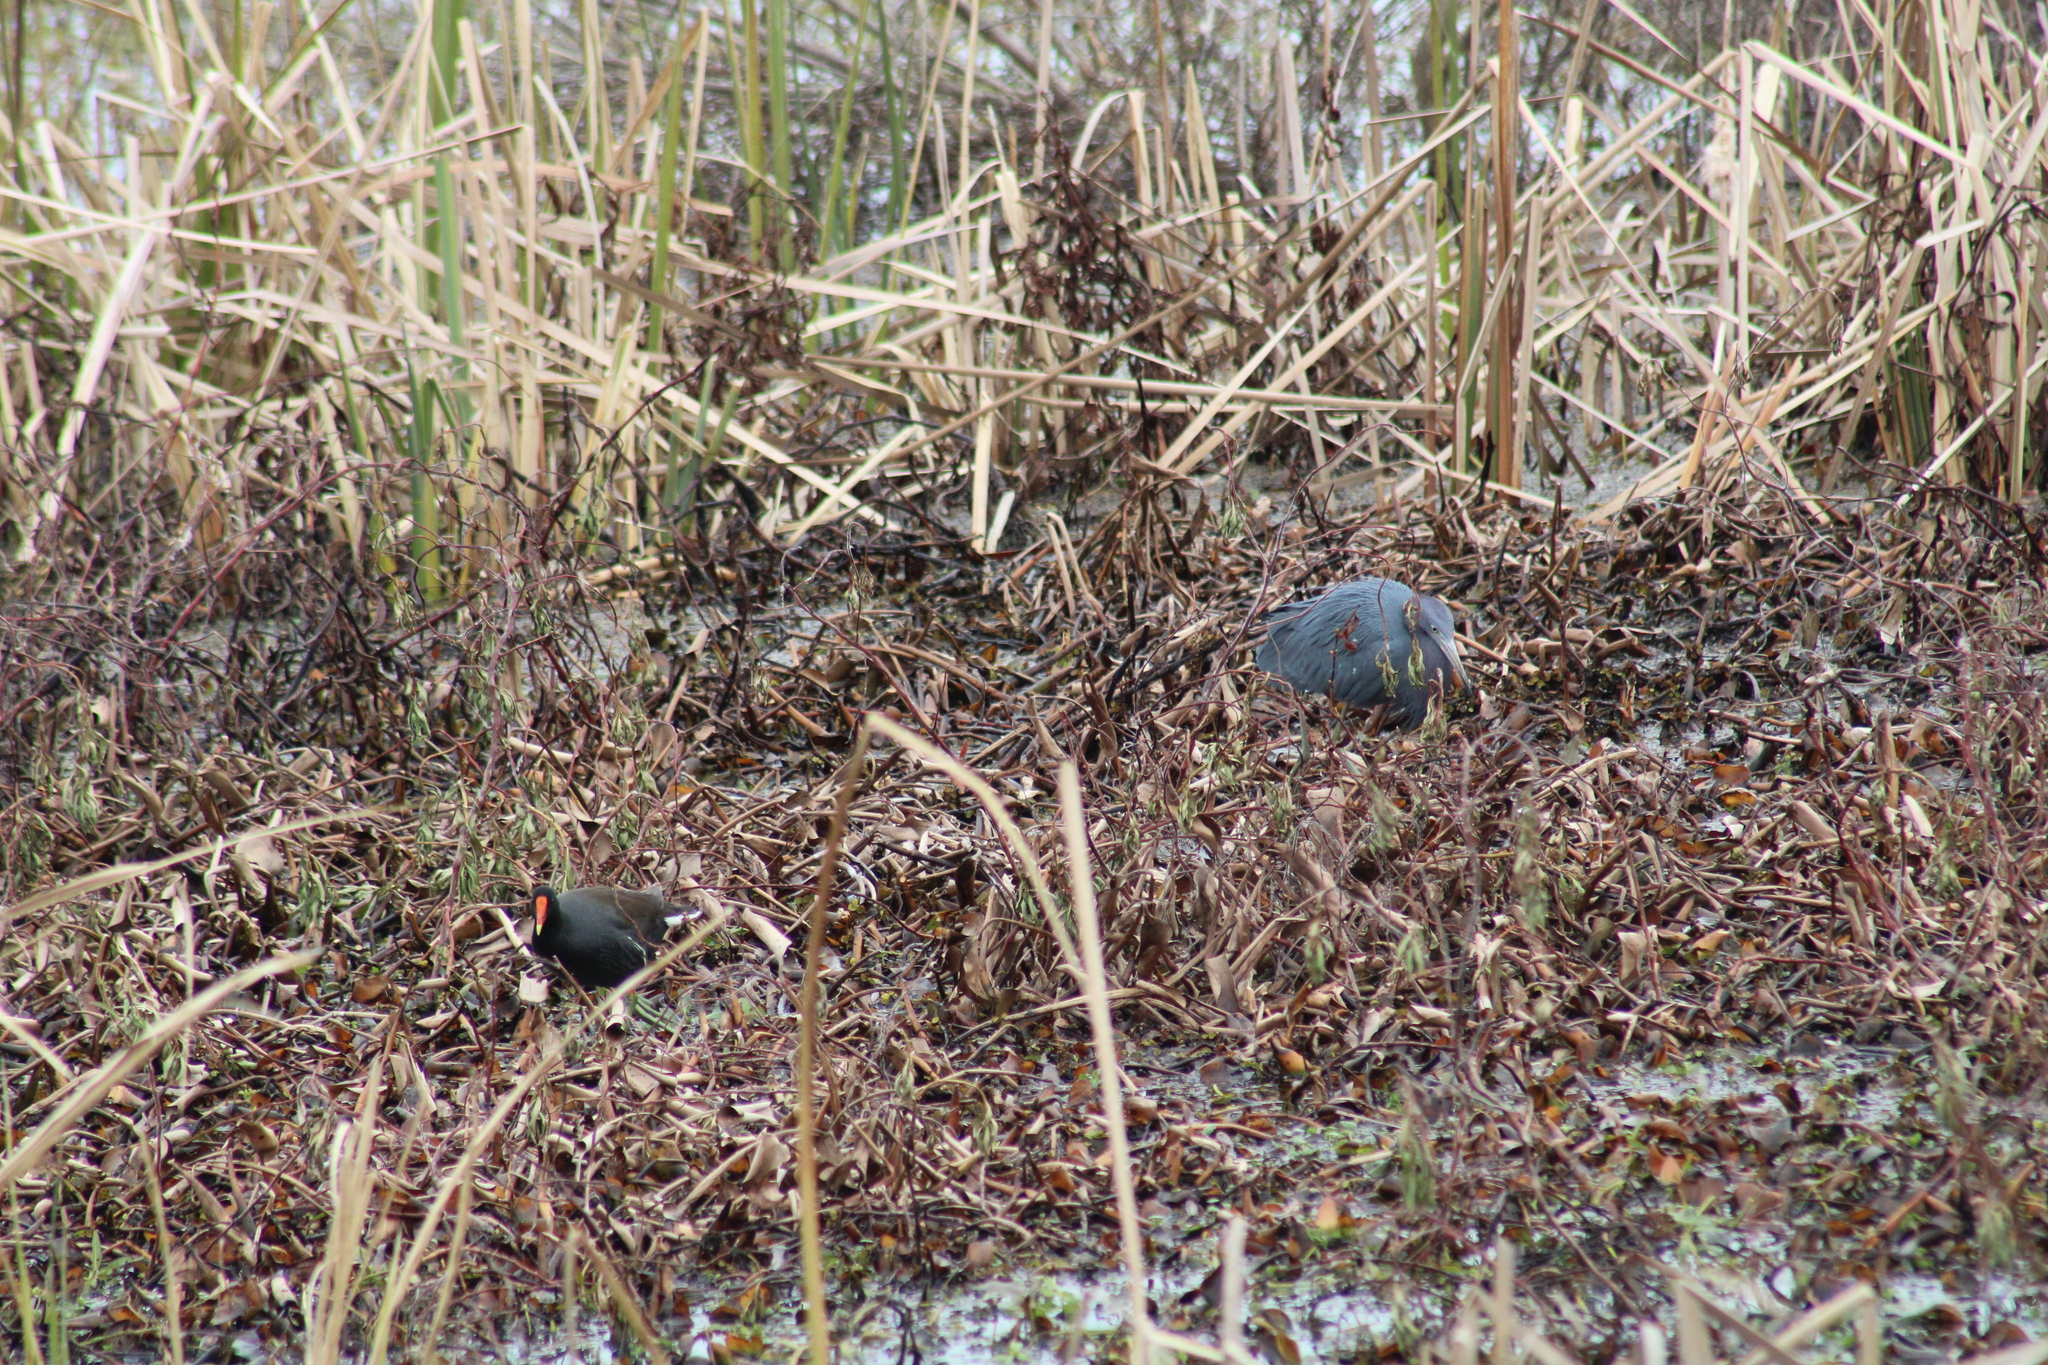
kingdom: Animalia
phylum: Chordata
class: Aves
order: Gruiformes
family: Rallidae
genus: Gallinula
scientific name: Gallinula chloropus
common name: Common moorhen
